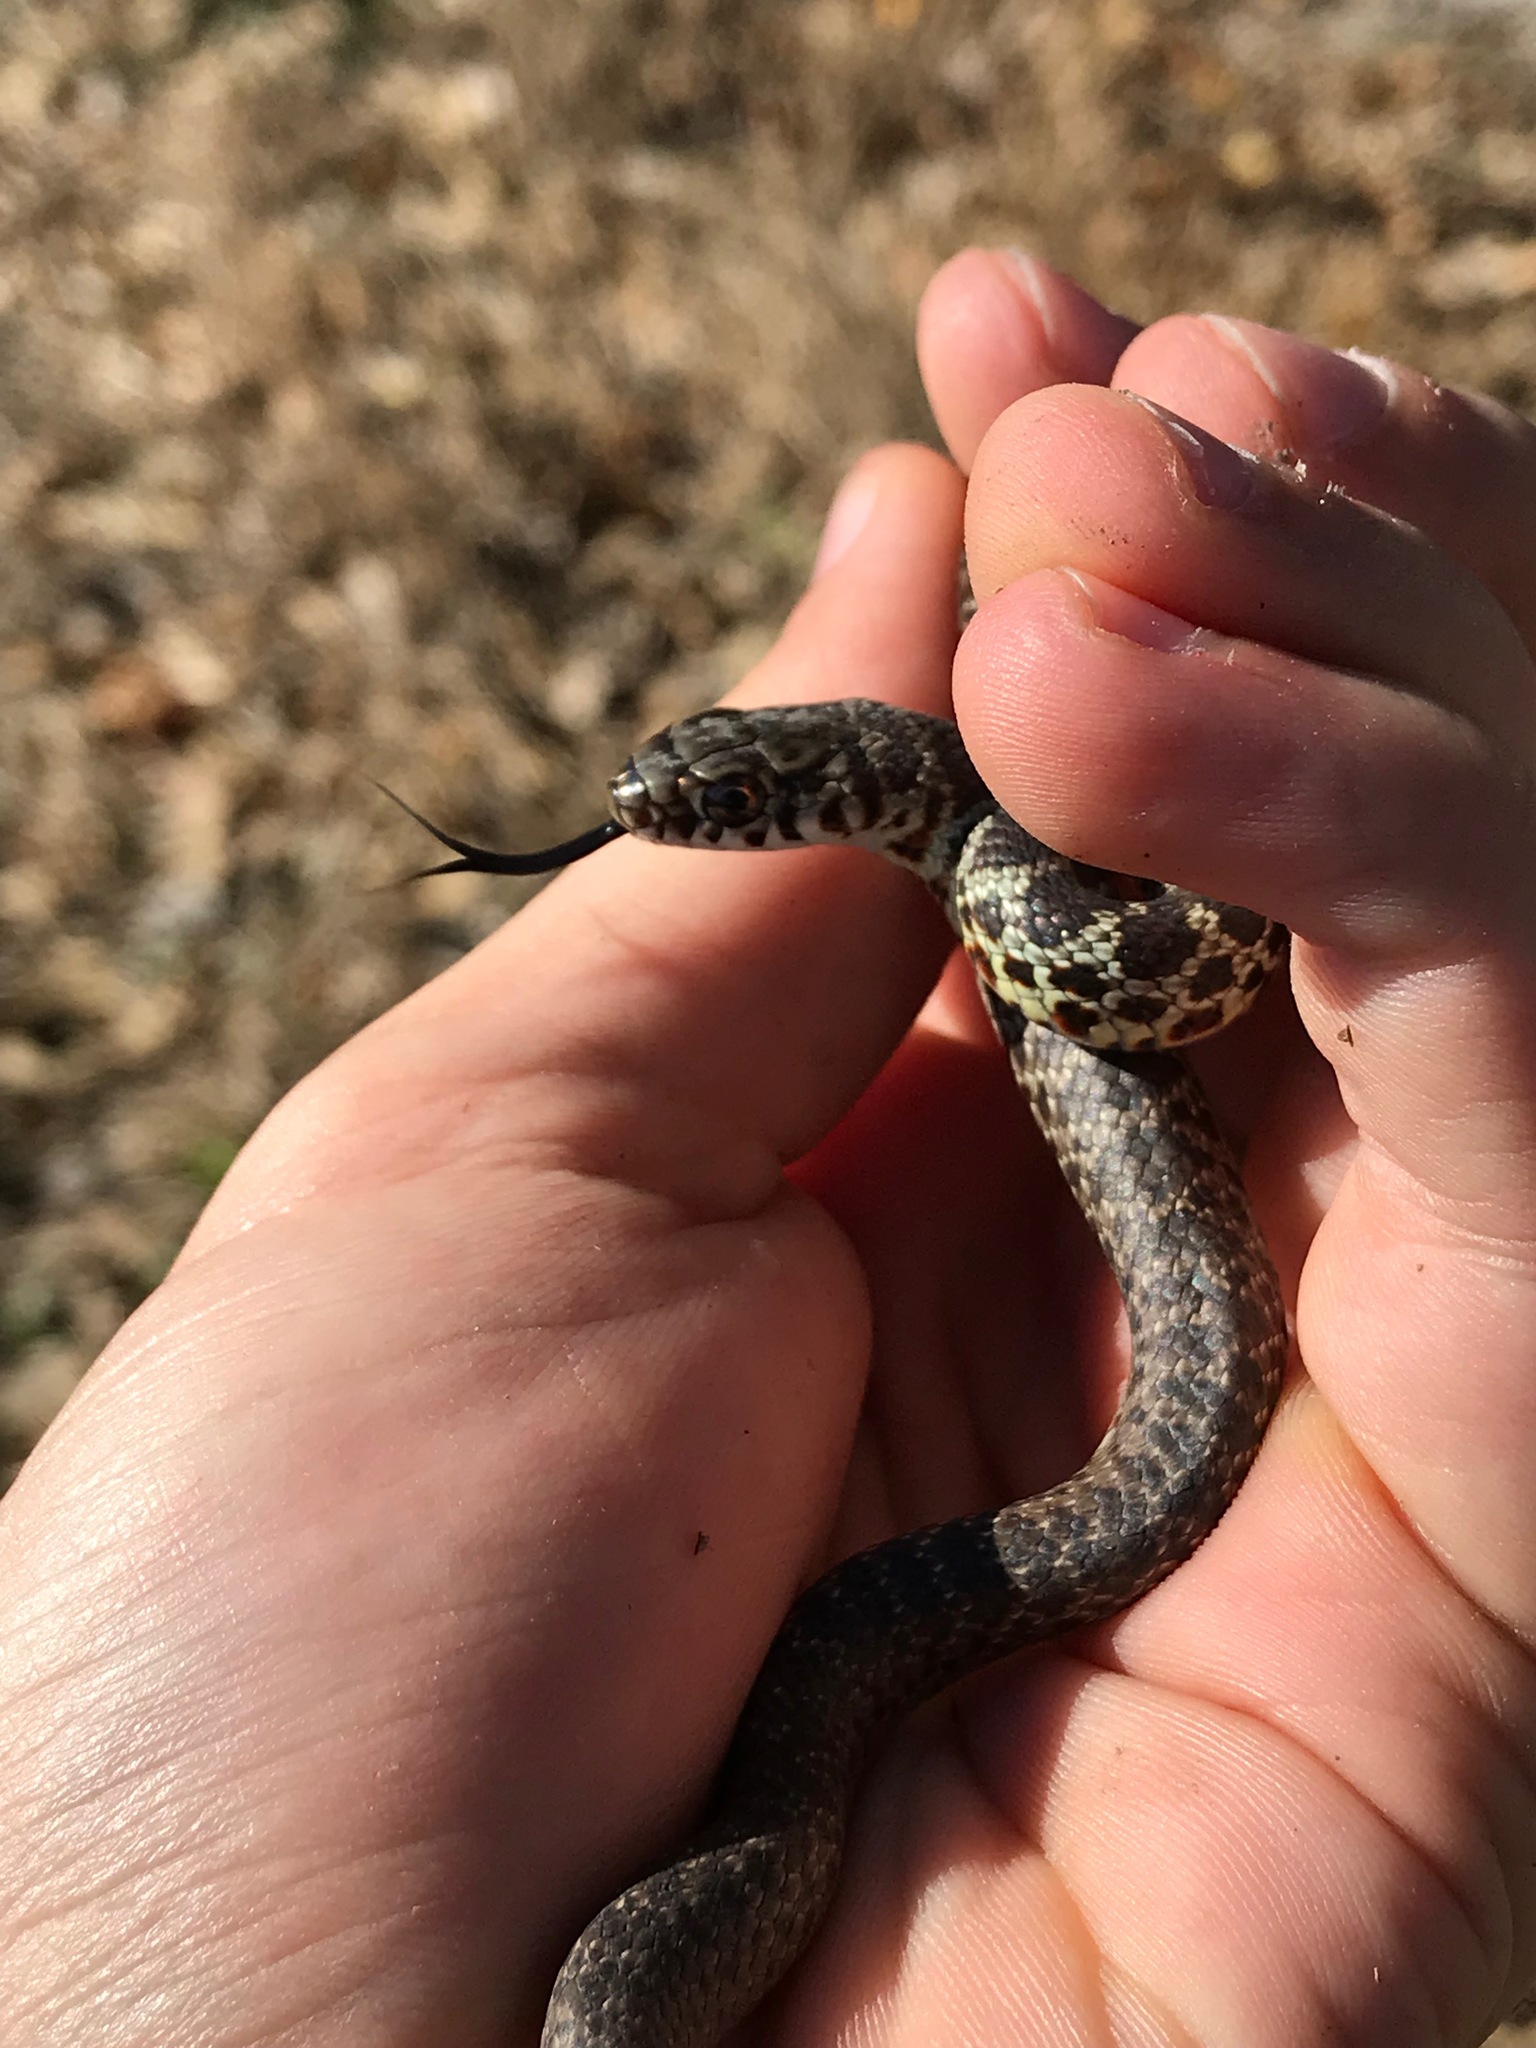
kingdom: Animalia
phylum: Chordata
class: Squamata
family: Colubridae
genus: Coluber
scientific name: Coluber constrictor
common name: Eastern racer
